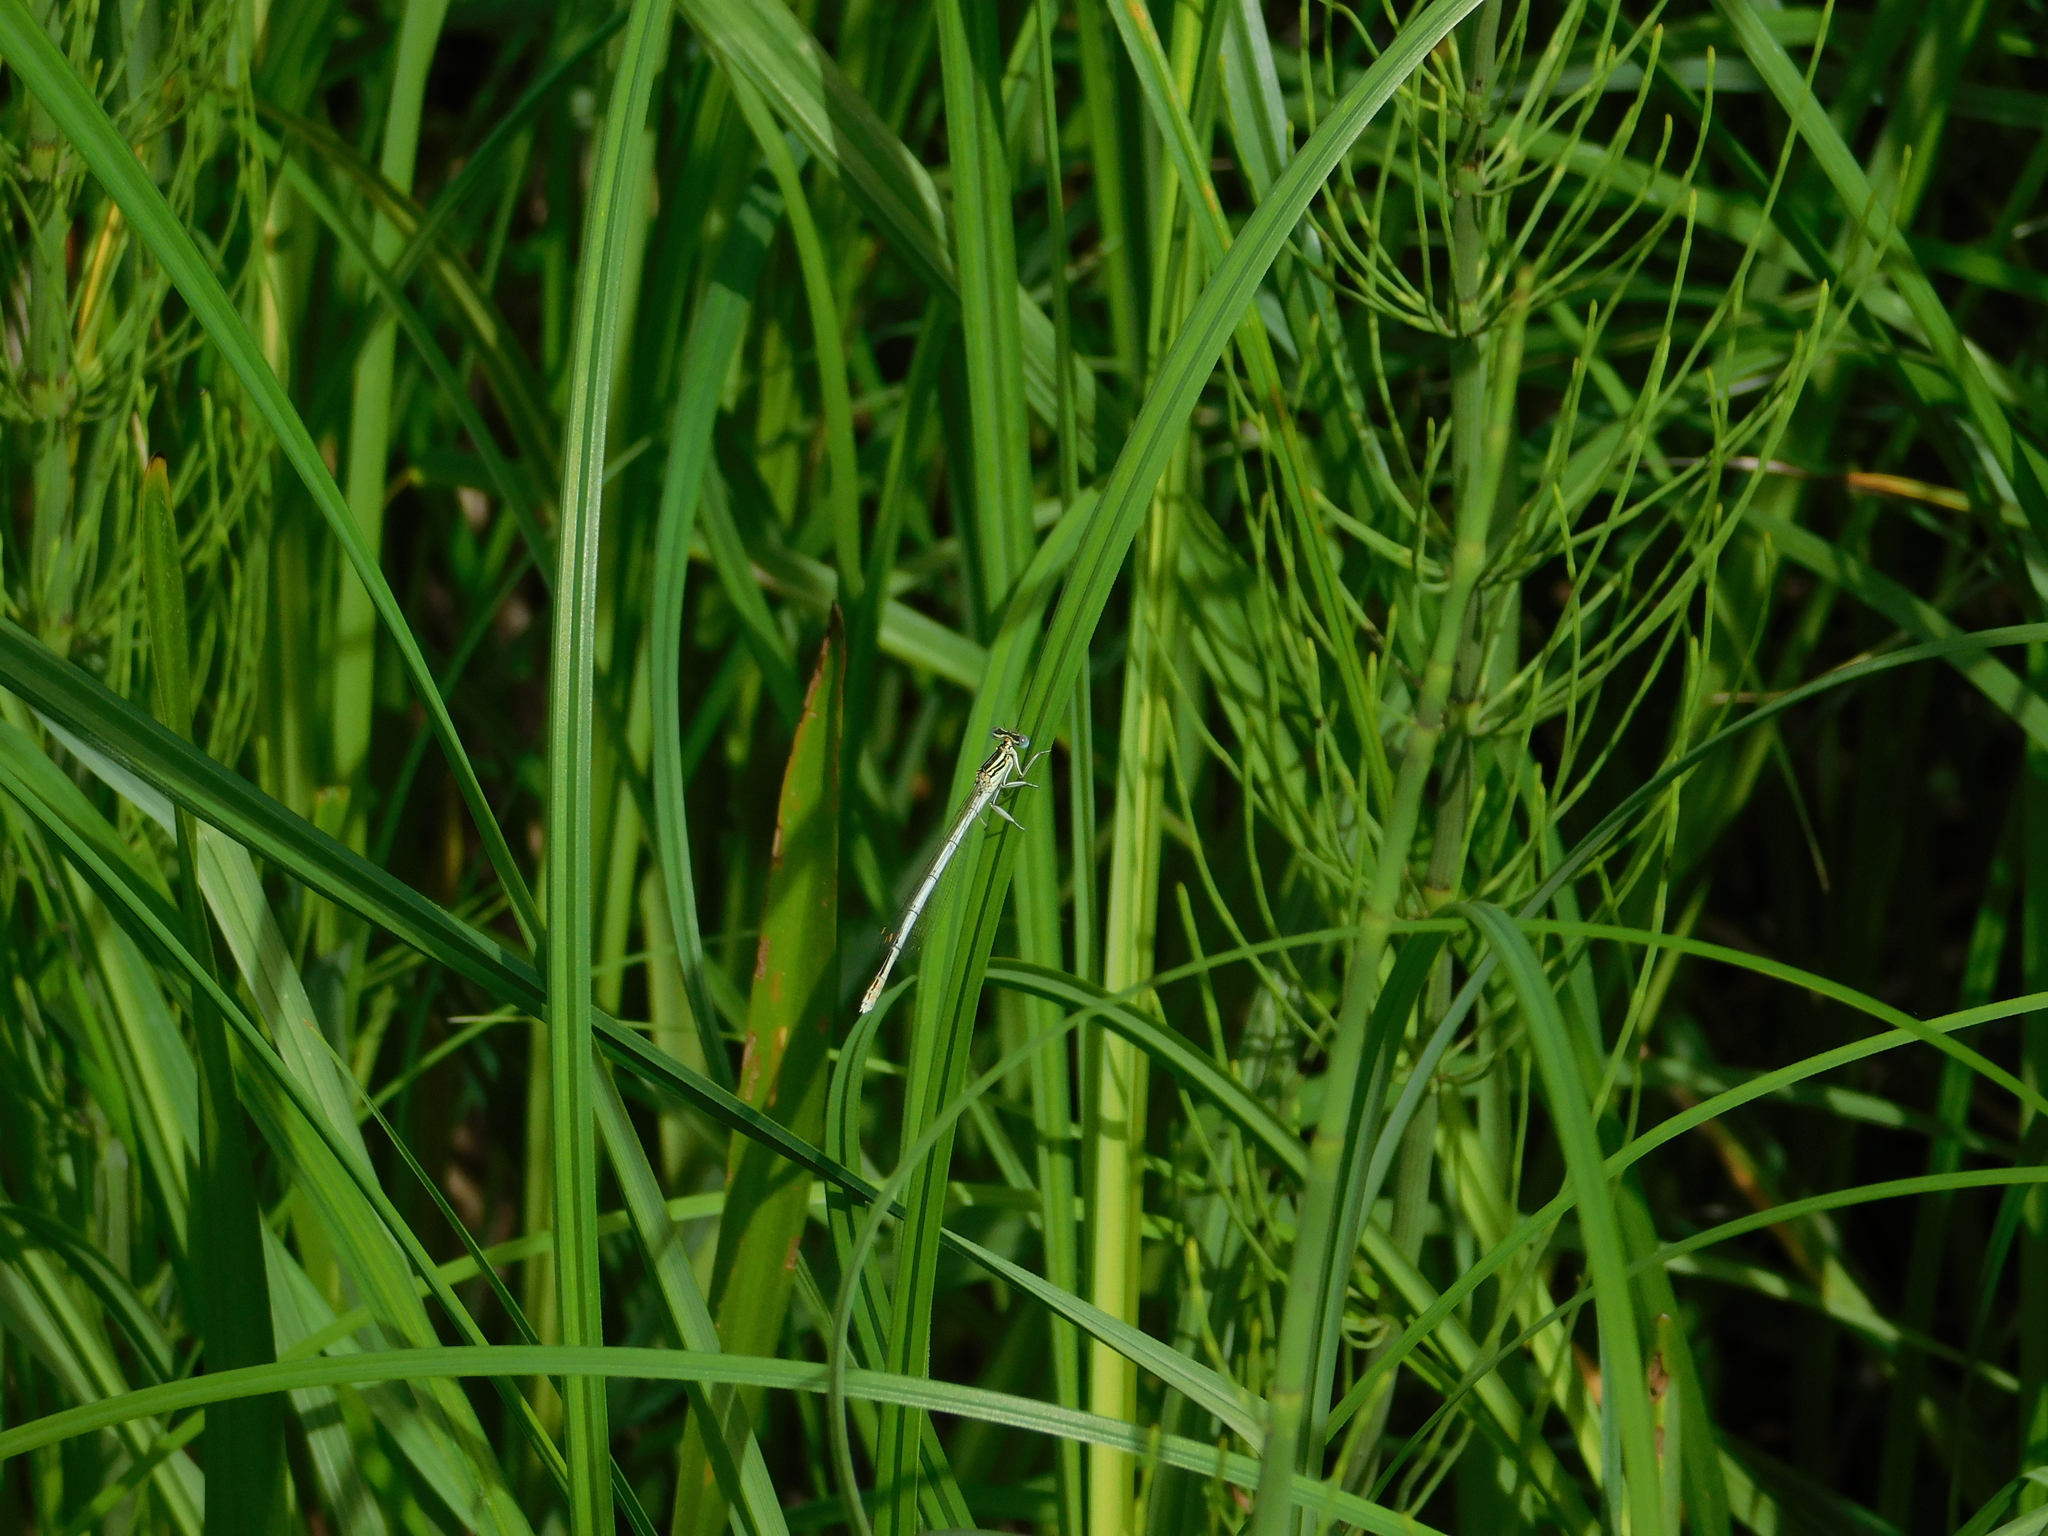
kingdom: Animalia
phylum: Arthropoda
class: Insecta
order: Odonata
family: Platycnemididae
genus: Platycnemis
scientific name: Platycnemis pennipes
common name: White-legged damselfly
